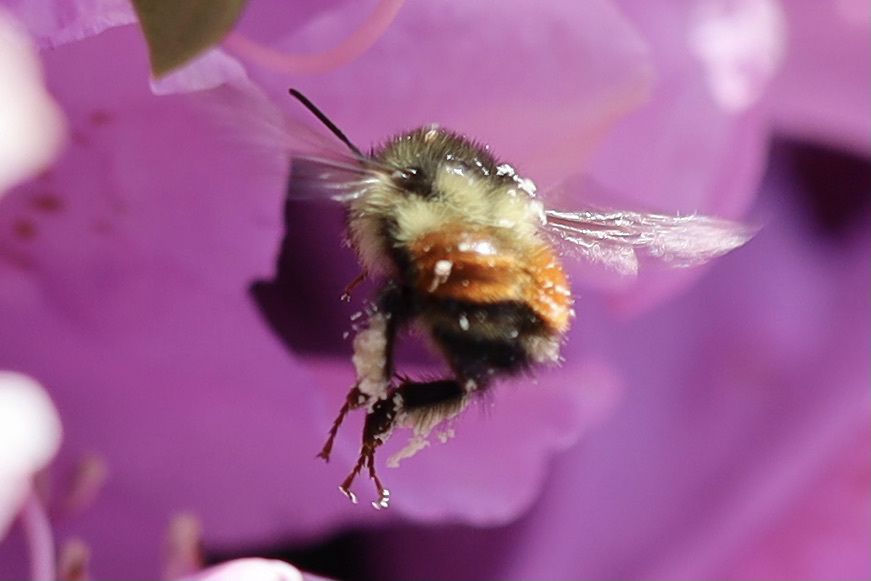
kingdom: Animalia
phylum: Arthropoda
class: Insecta
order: Hymenoptera
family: Apidae
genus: Bombus
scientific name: Bombus melanopygus
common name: Black tail bumble bee
